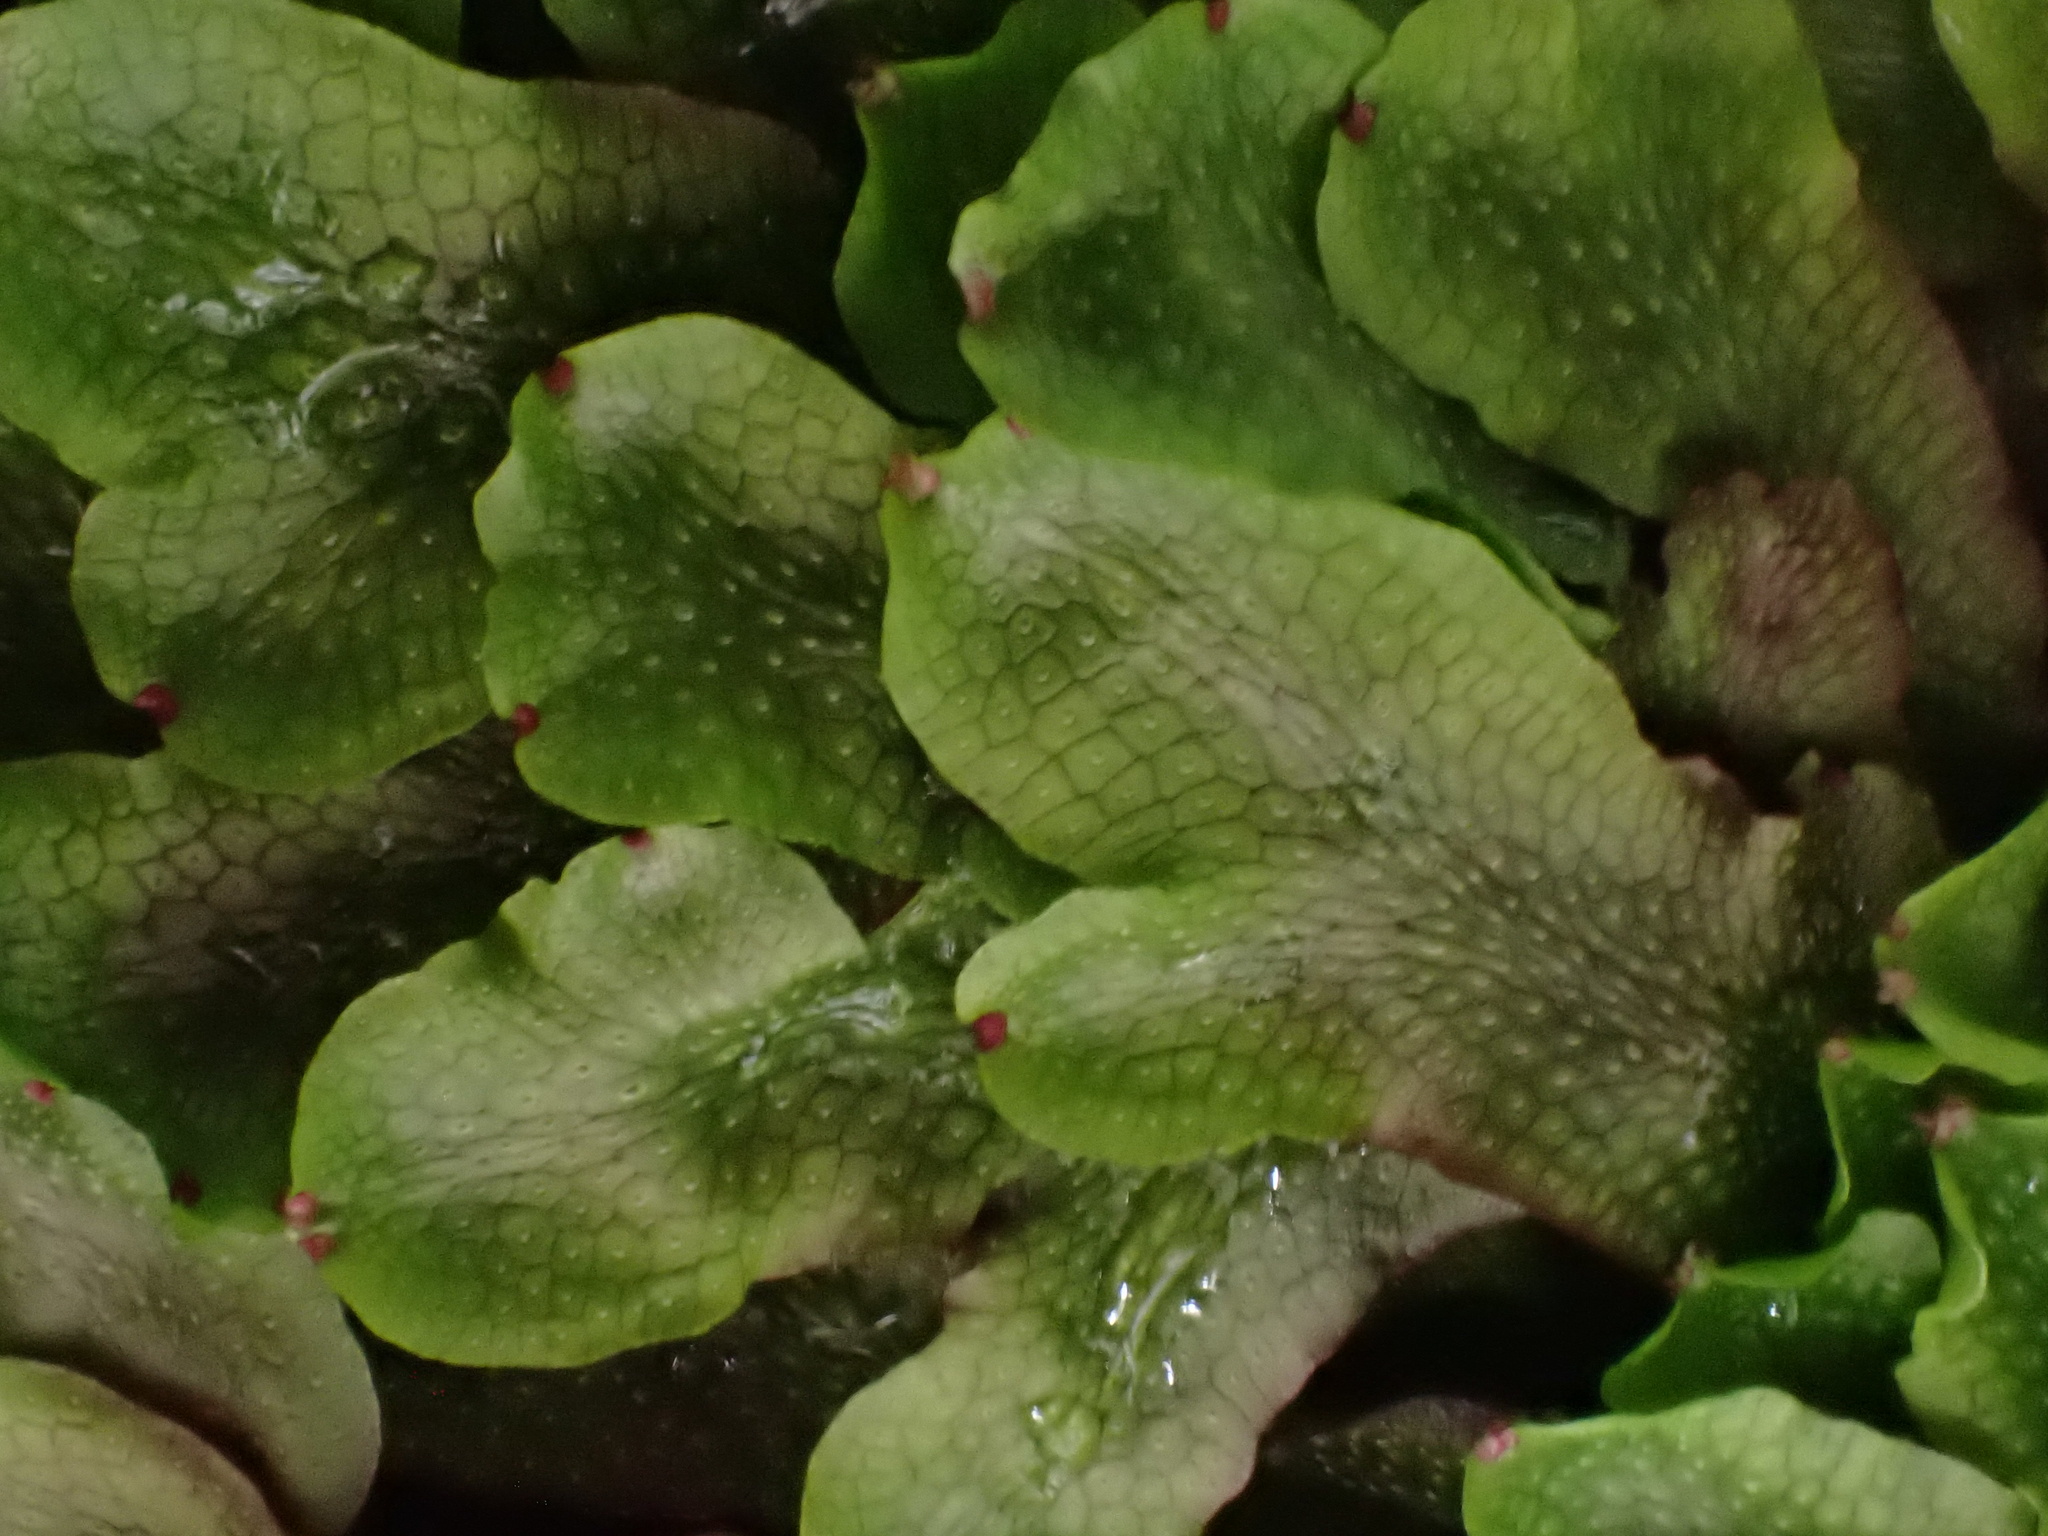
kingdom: Plantae
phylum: Marchantiophyta
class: Marchantiopsida
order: Marchantiales
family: Conocephalaceae
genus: Conocephalum
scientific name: Conocephalum salebrosum
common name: Cat-tongue liverwort
